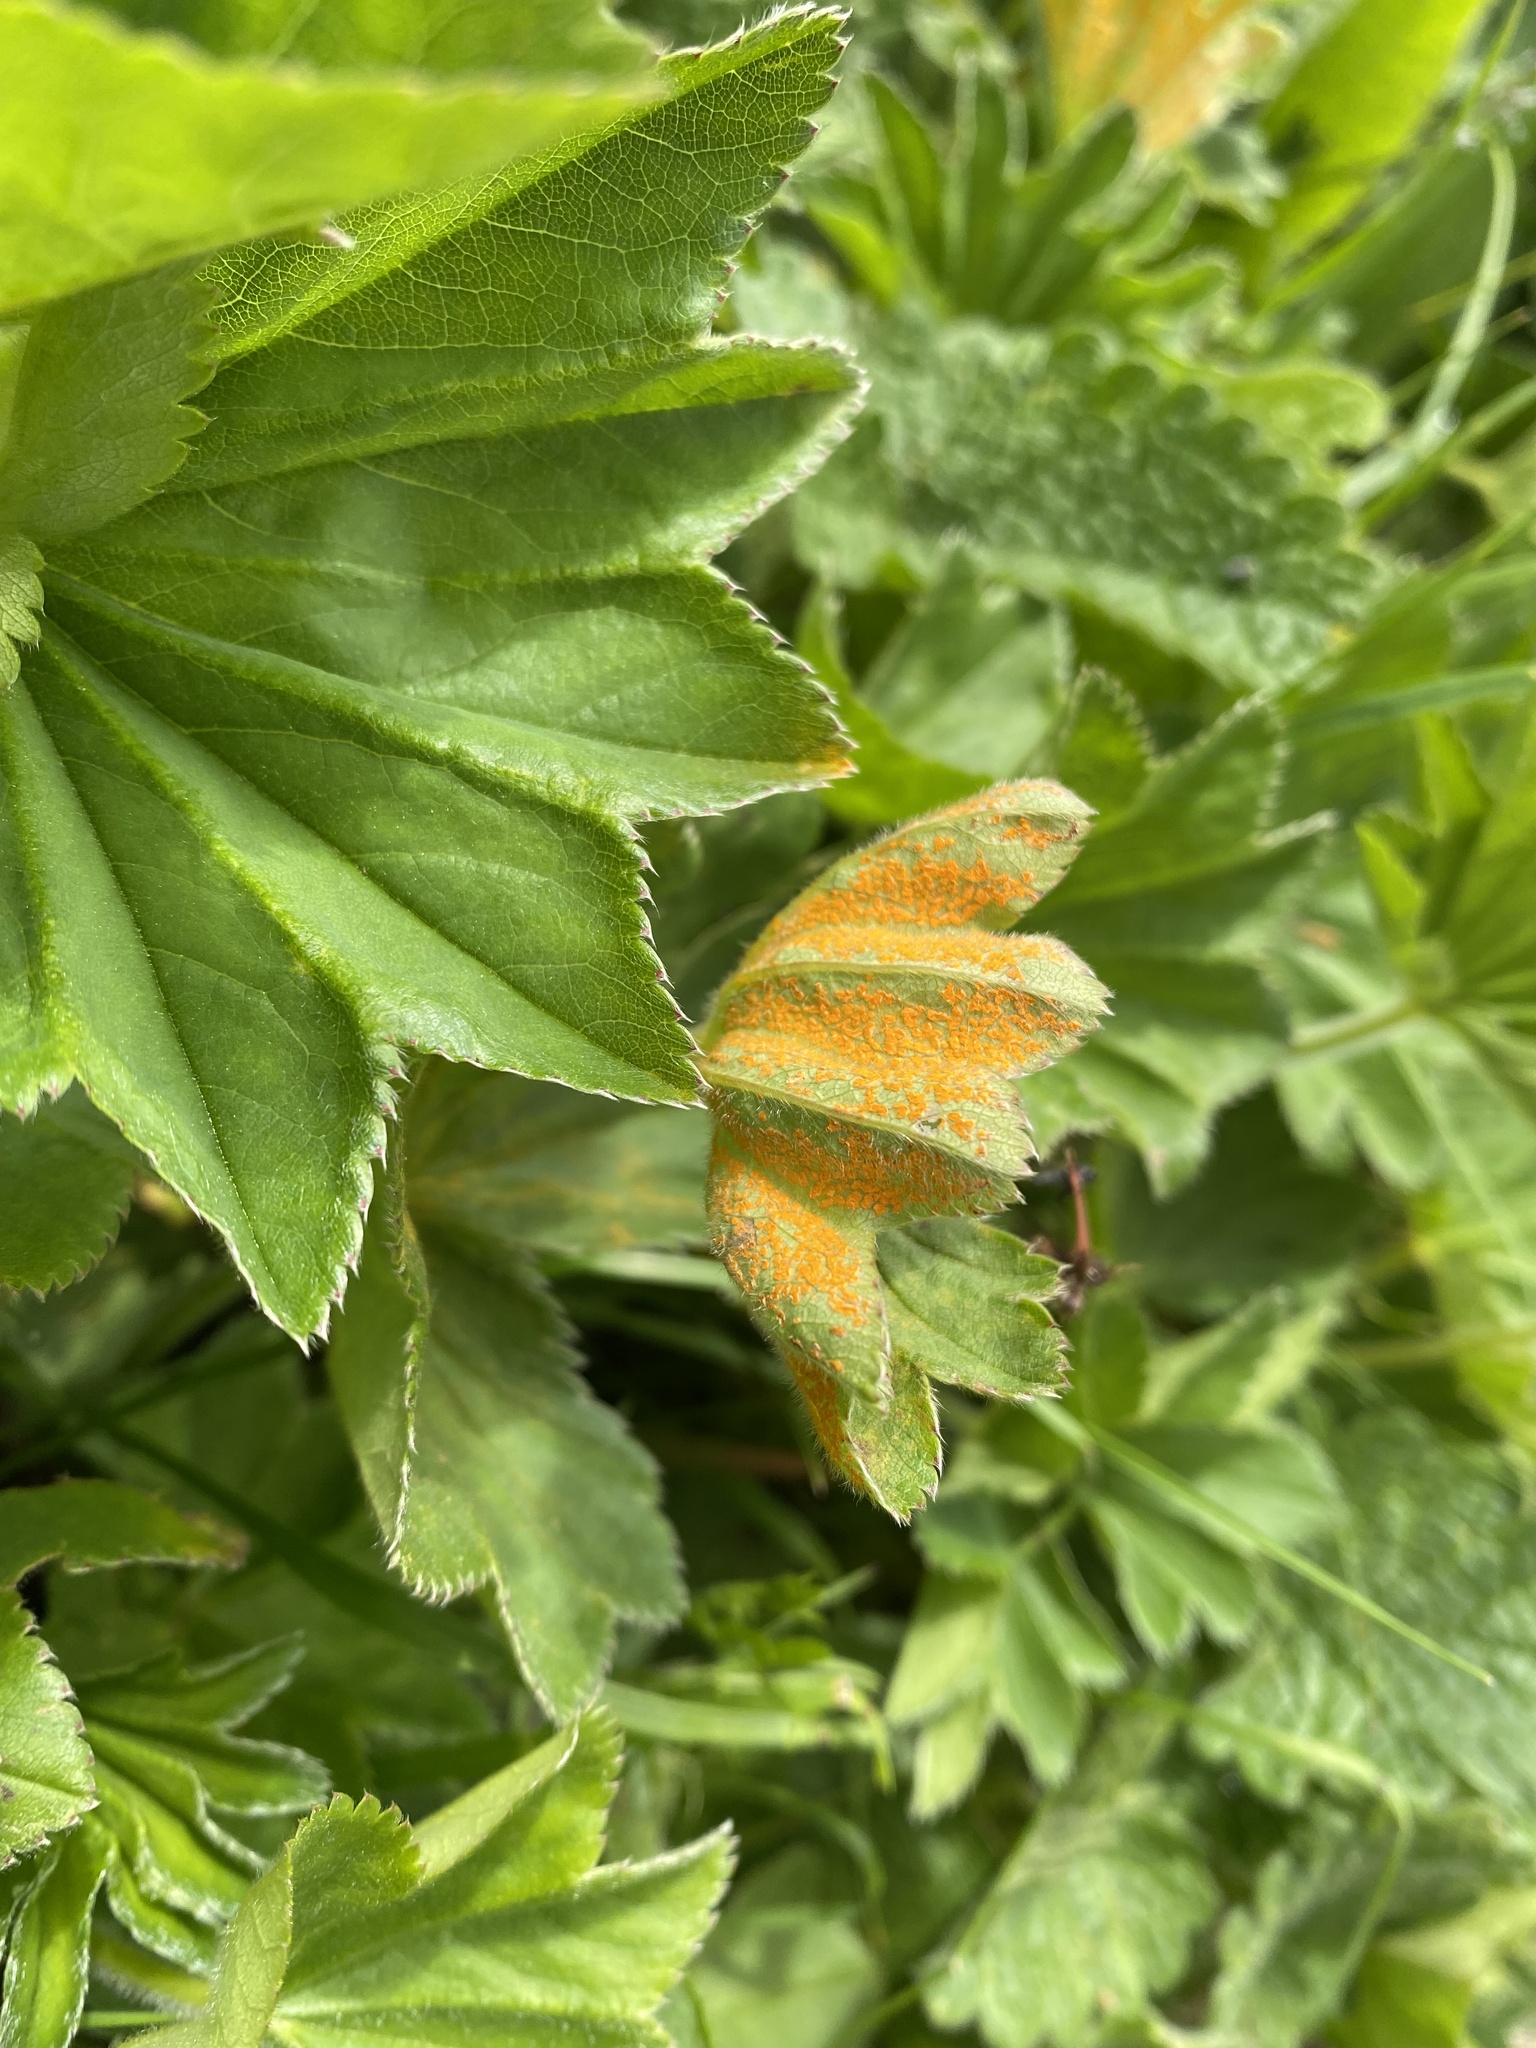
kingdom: Fungi
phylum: Basidiomycota
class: Pucciniomycetes
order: Pucciniales
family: Phragmidiaceae
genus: Trachyspora
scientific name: Trachyspora alchemillae
